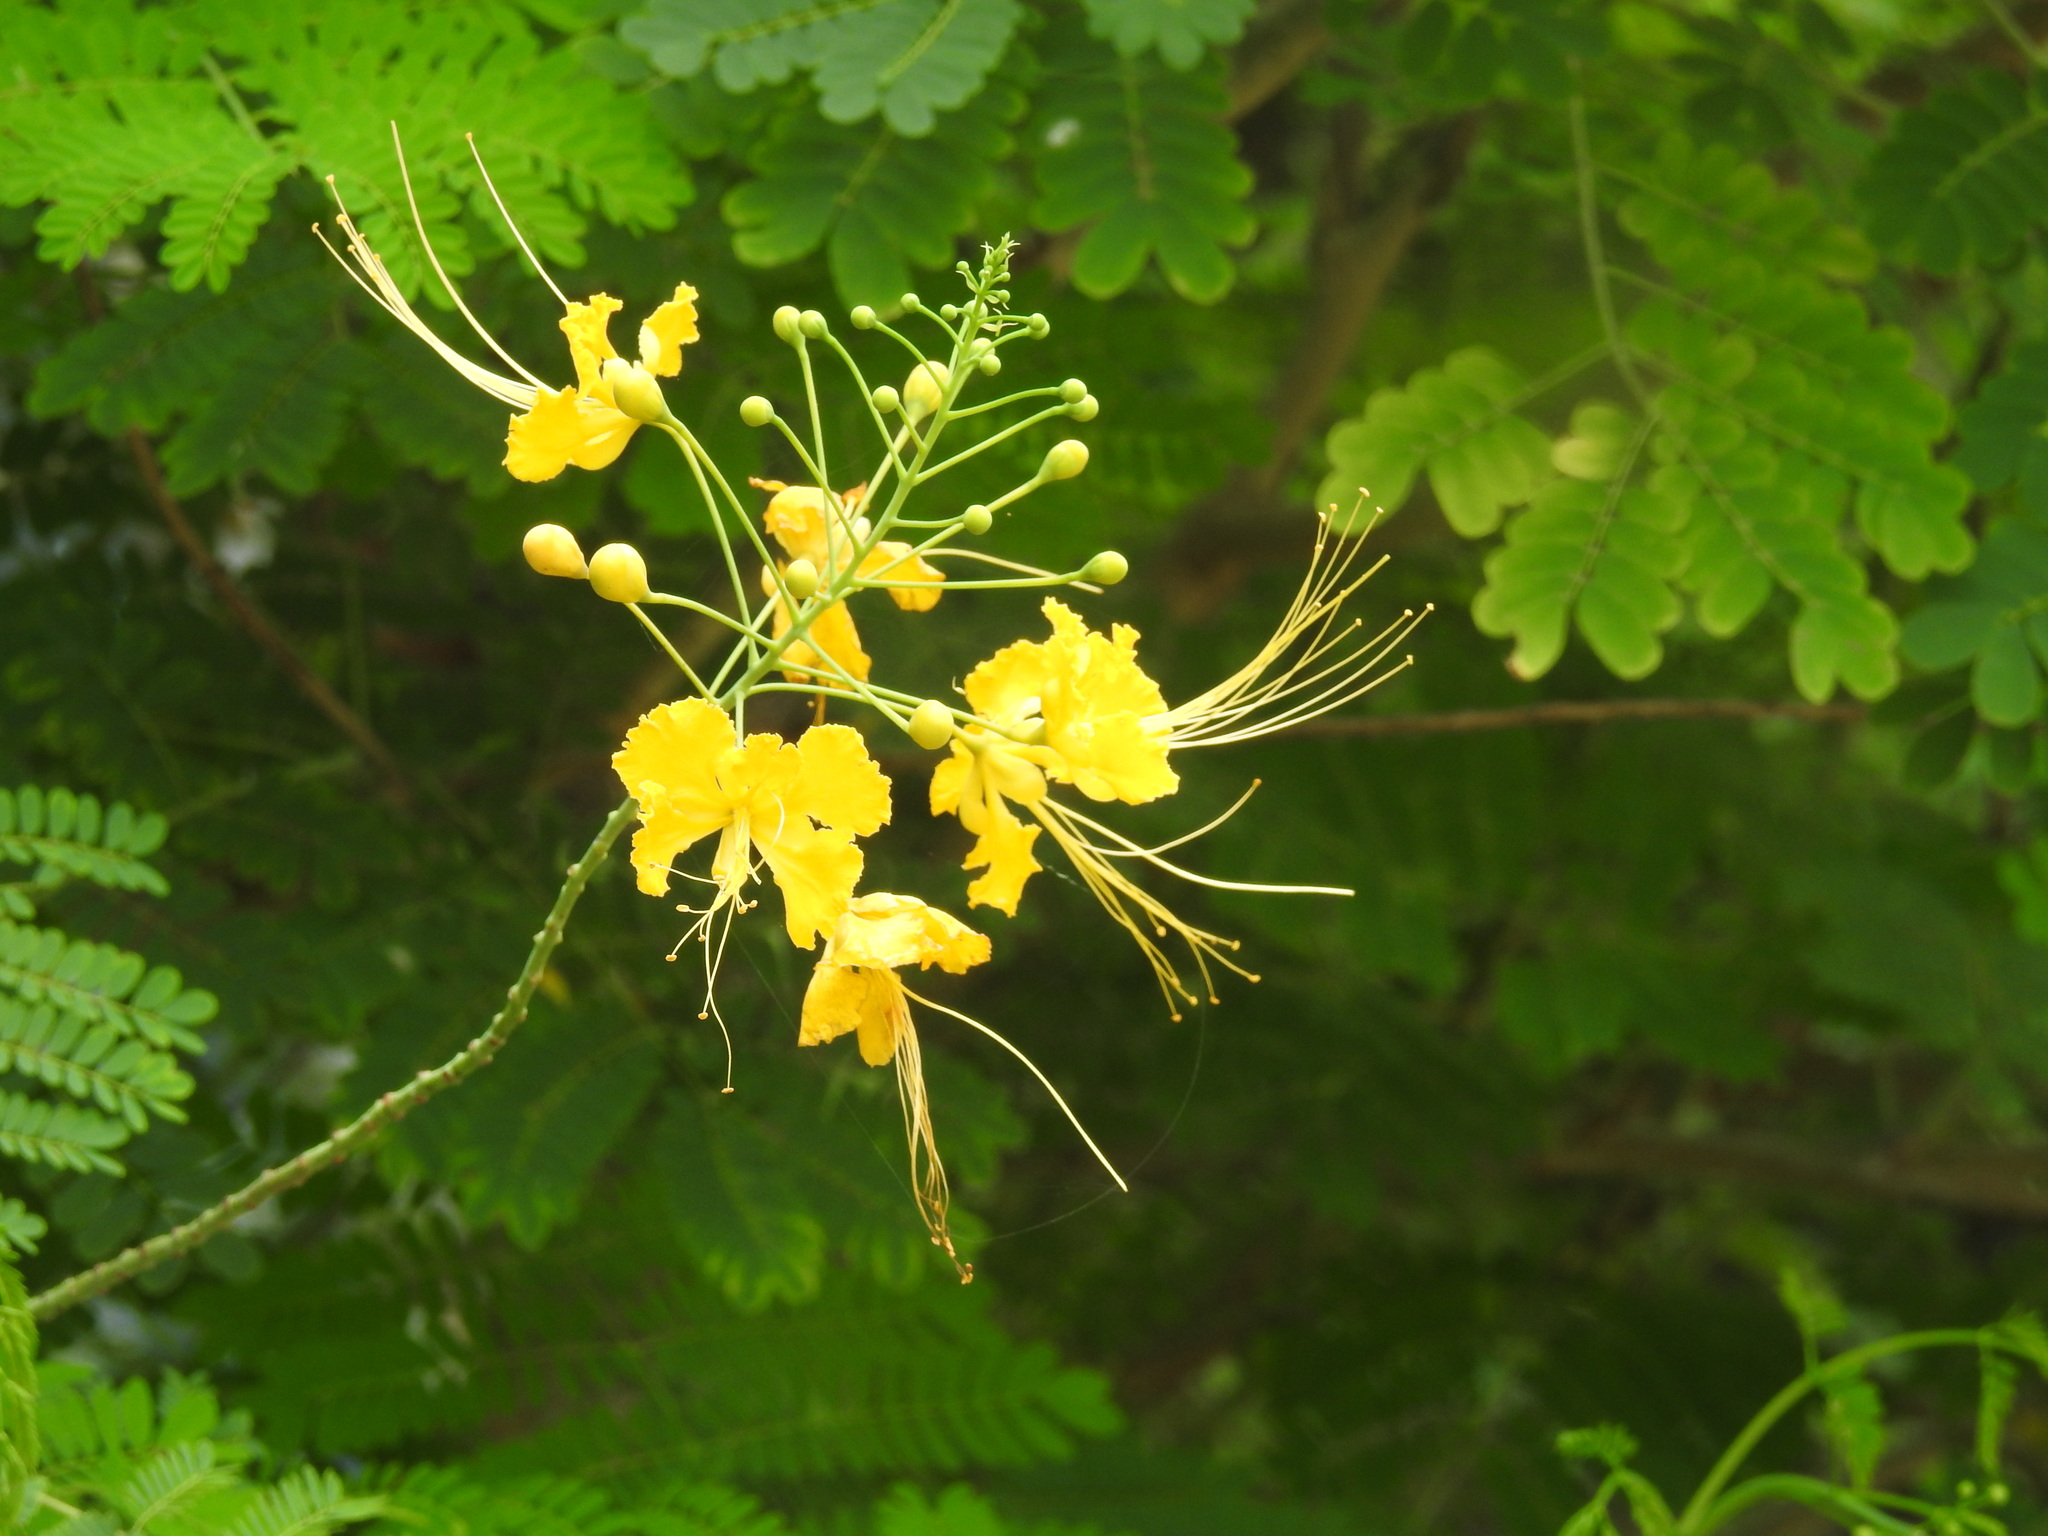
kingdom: Plantae
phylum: Tracheophyta
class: Magnoliopsida
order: Fabales
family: Fabaceae
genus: Caesalpinia
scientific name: Caesalpinia pulcherrima
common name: Pride-of-barbados
